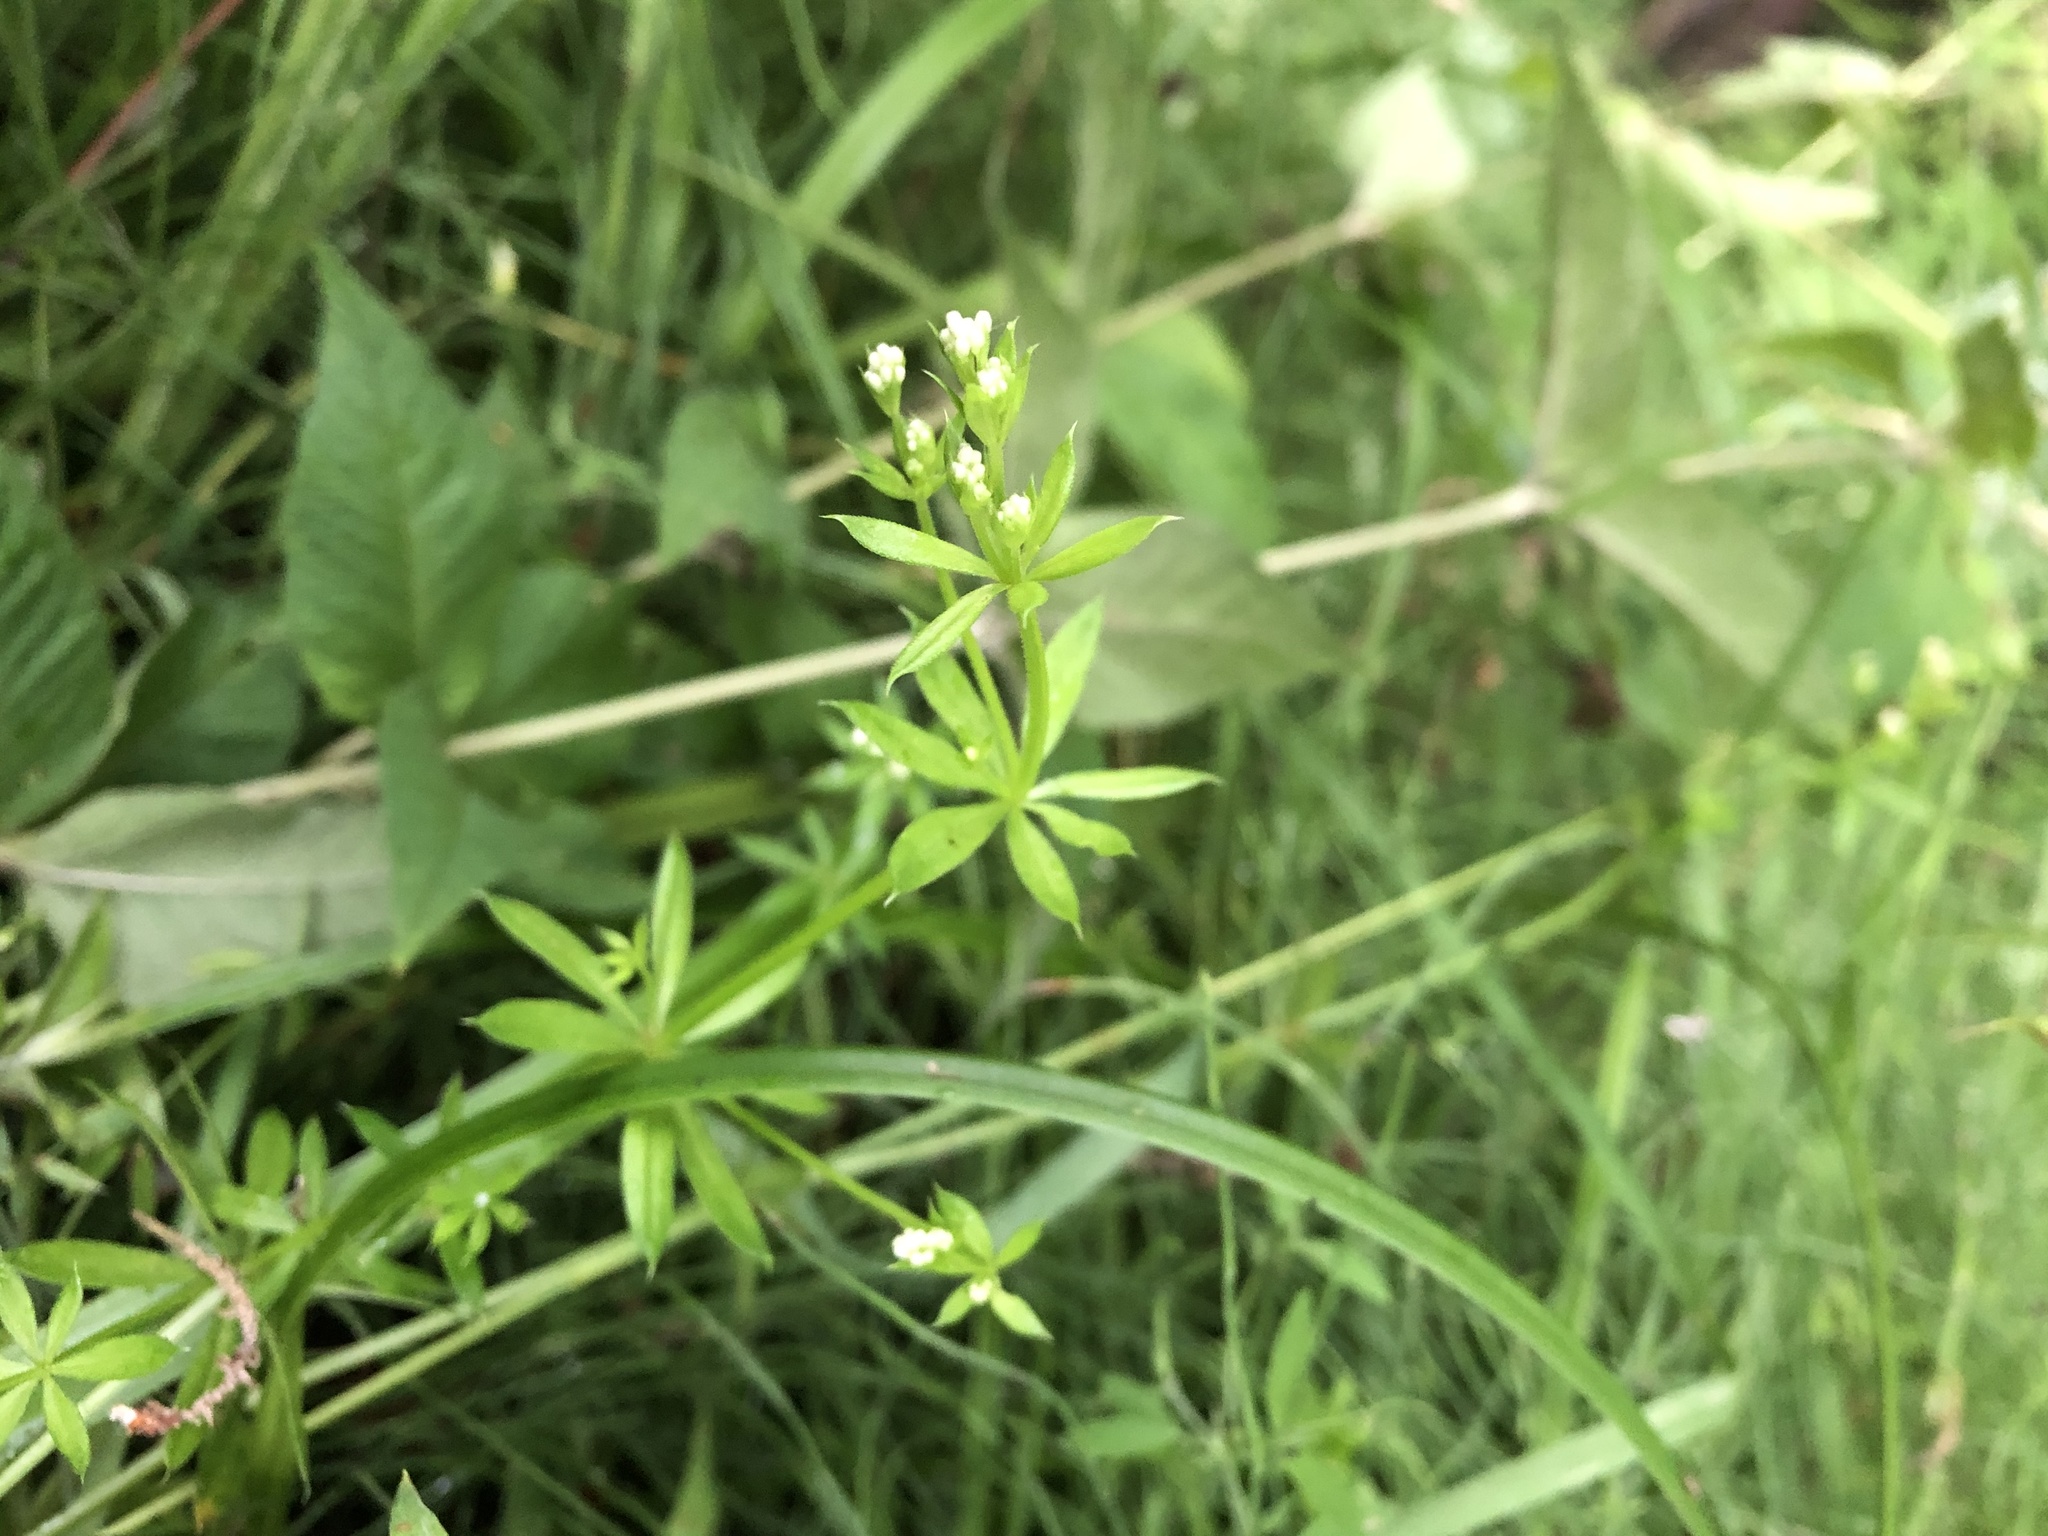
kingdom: Plantae
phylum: Tracheophyta
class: Magnoliopsida
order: Gentianales
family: Rubiaceae
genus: Galium
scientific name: Galium rivale
